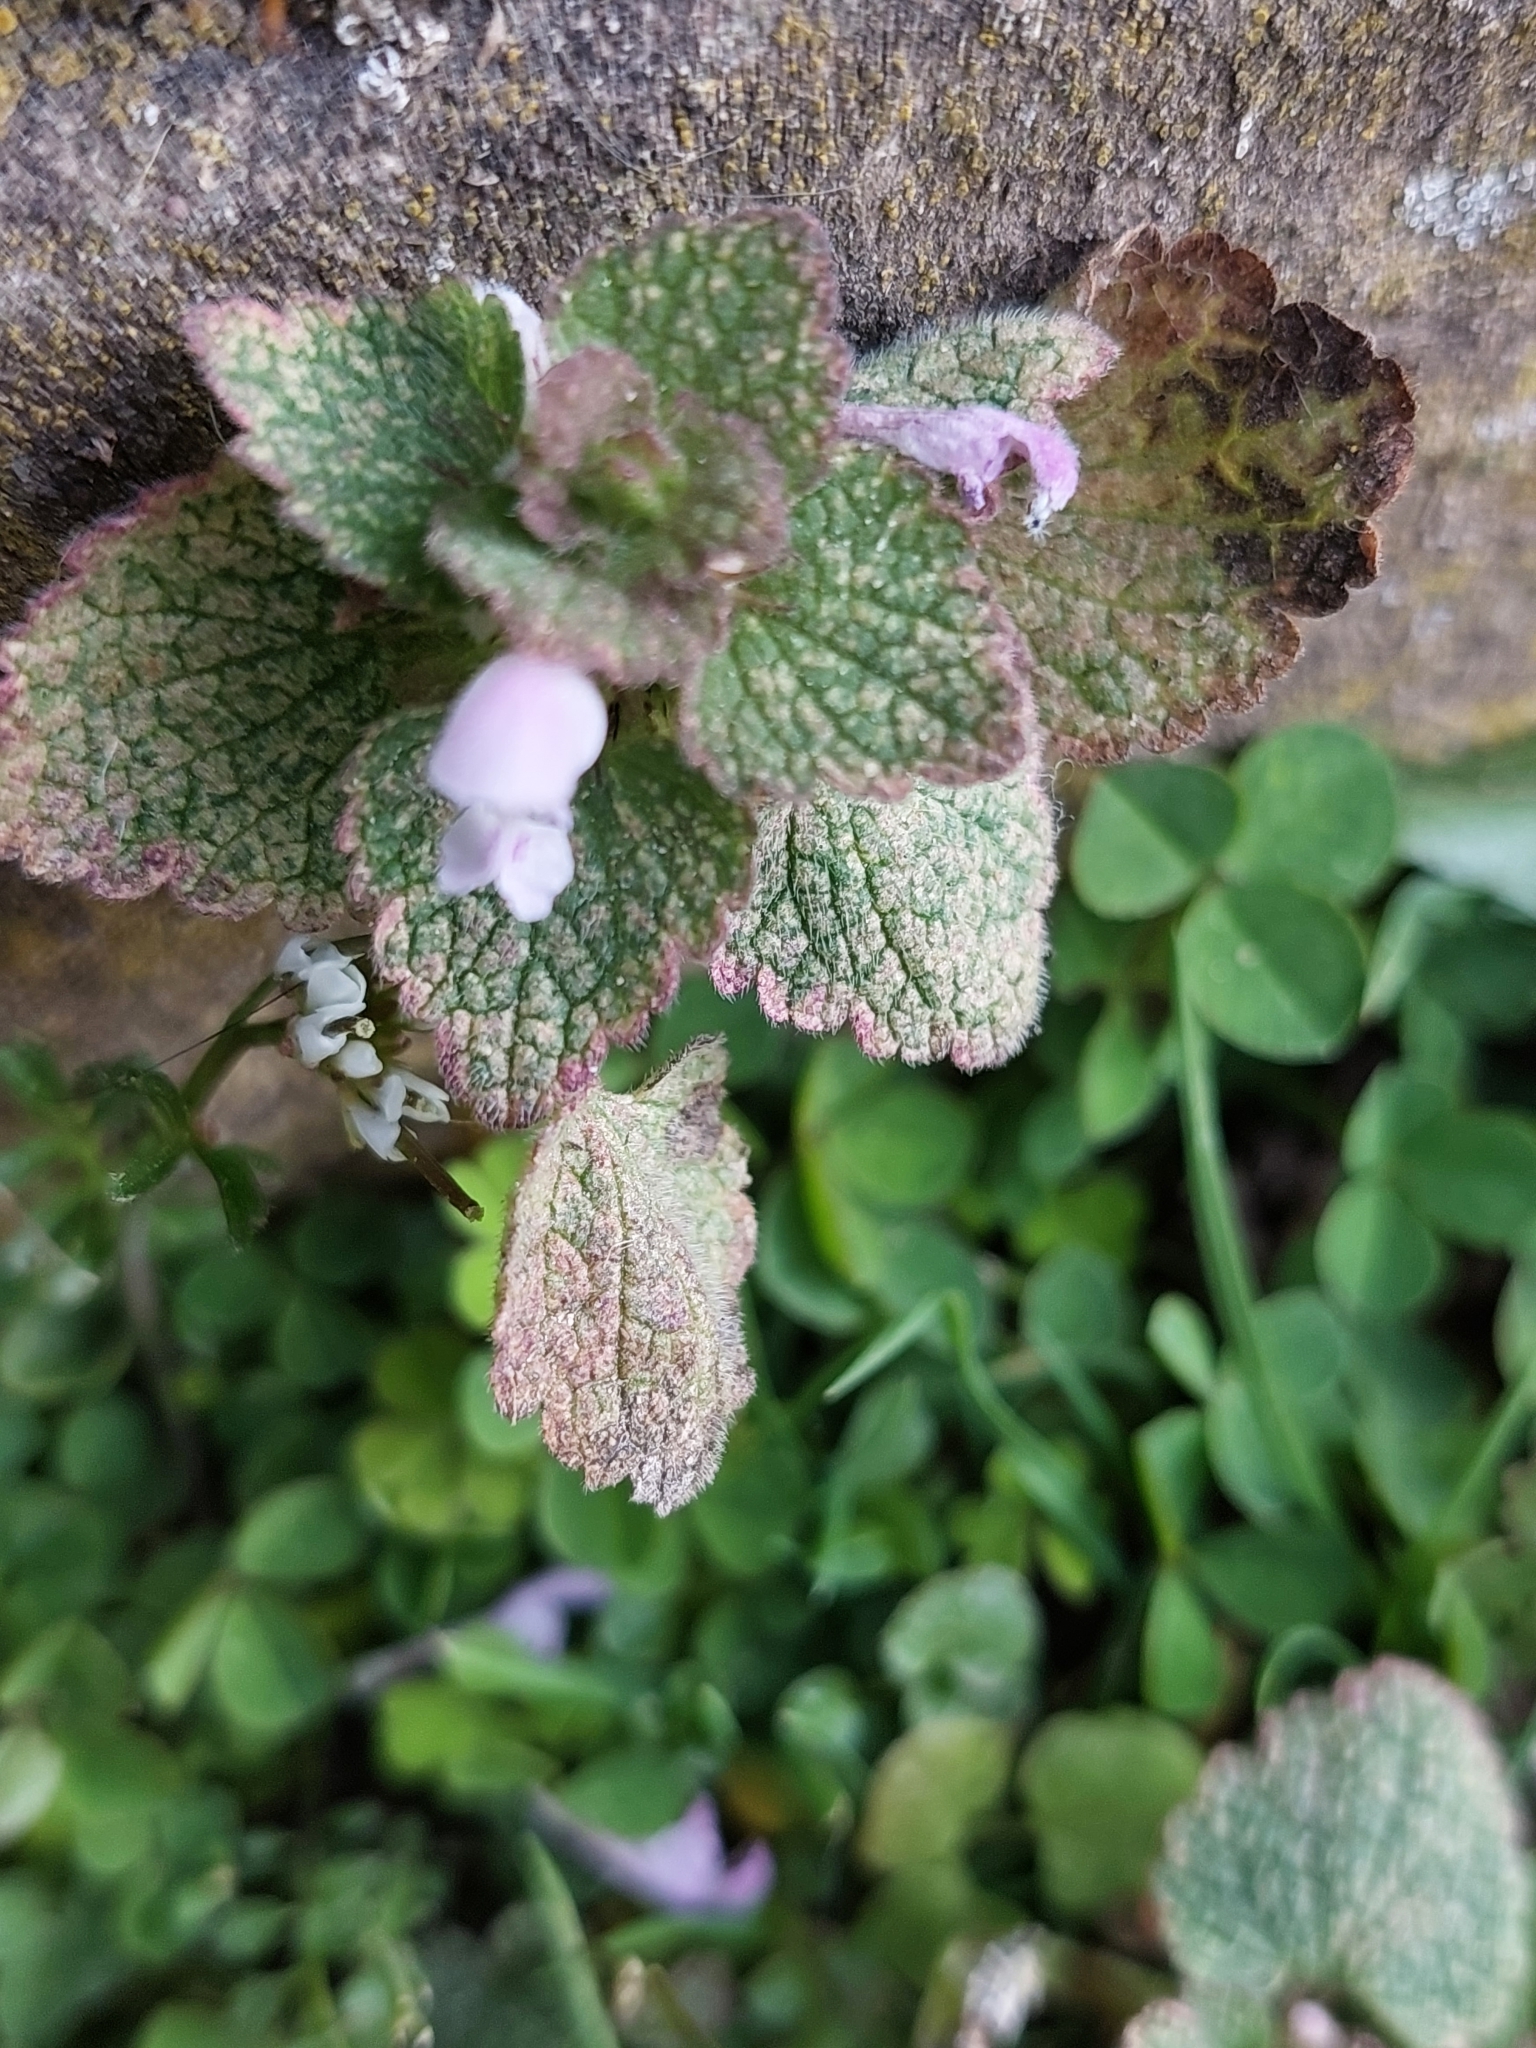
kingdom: Plantae
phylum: Tracheophyta
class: Magnoliopsida
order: Lamiales
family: Lamiaceae
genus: Lamium
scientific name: Lamium purpureum
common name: Red dead-nettle
